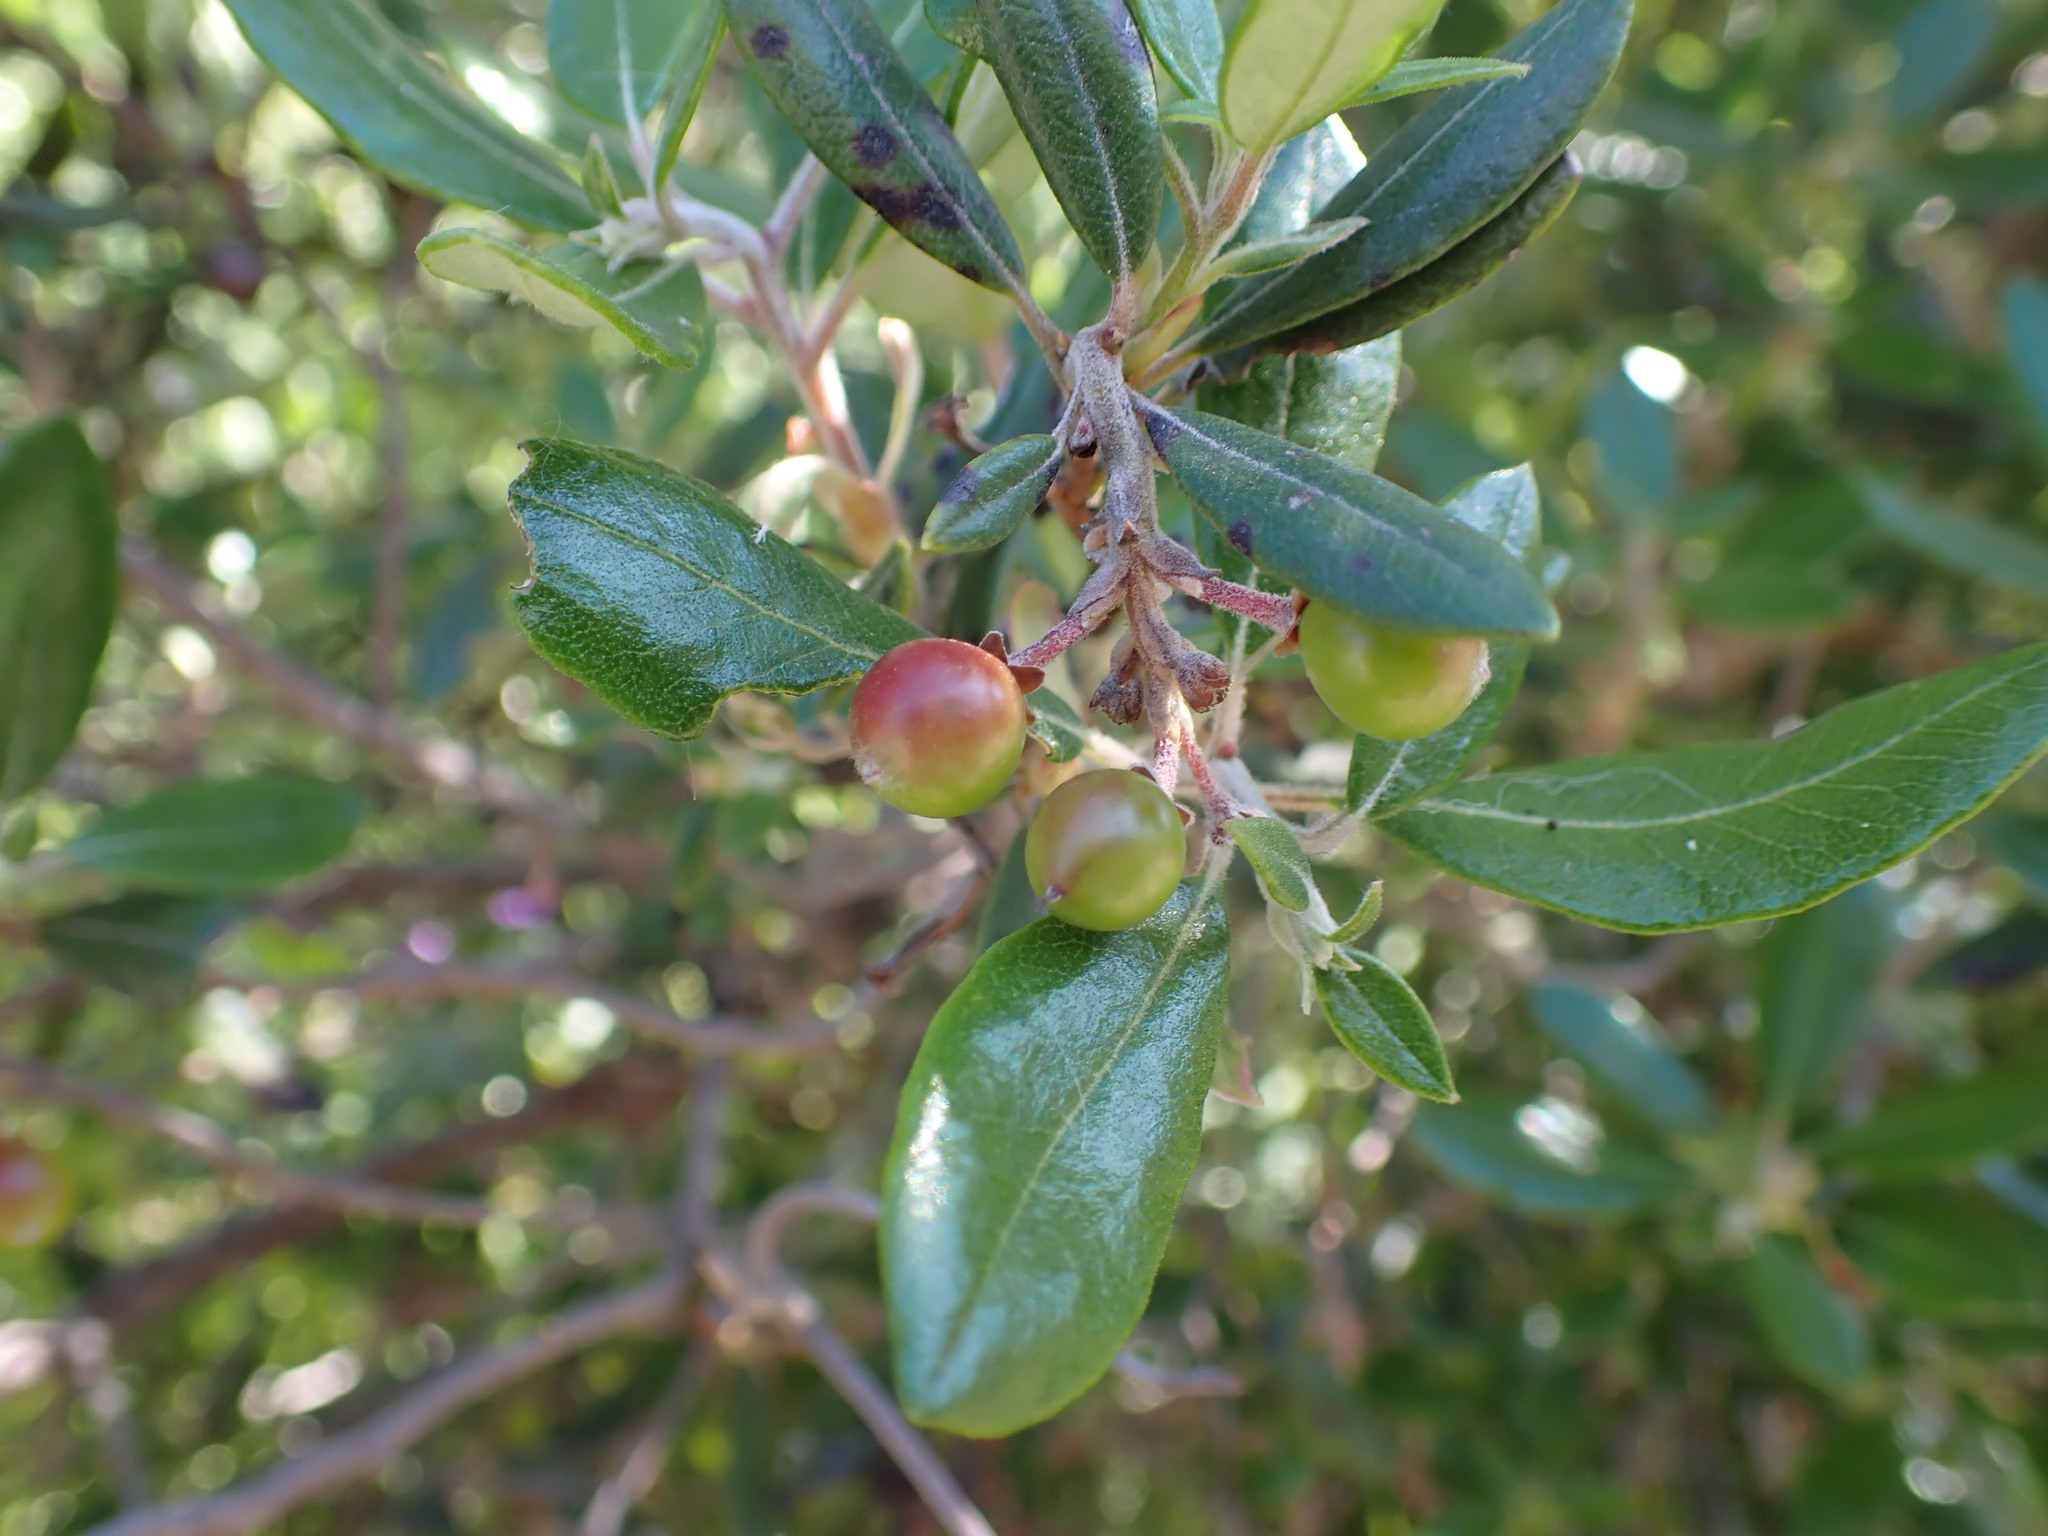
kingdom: Plantae
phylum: Tracheophyta
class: Magnoliopsida
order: Ericales
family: Ericaceae
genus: Arctostaphylos
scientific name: Arctostaphylos bicolor
